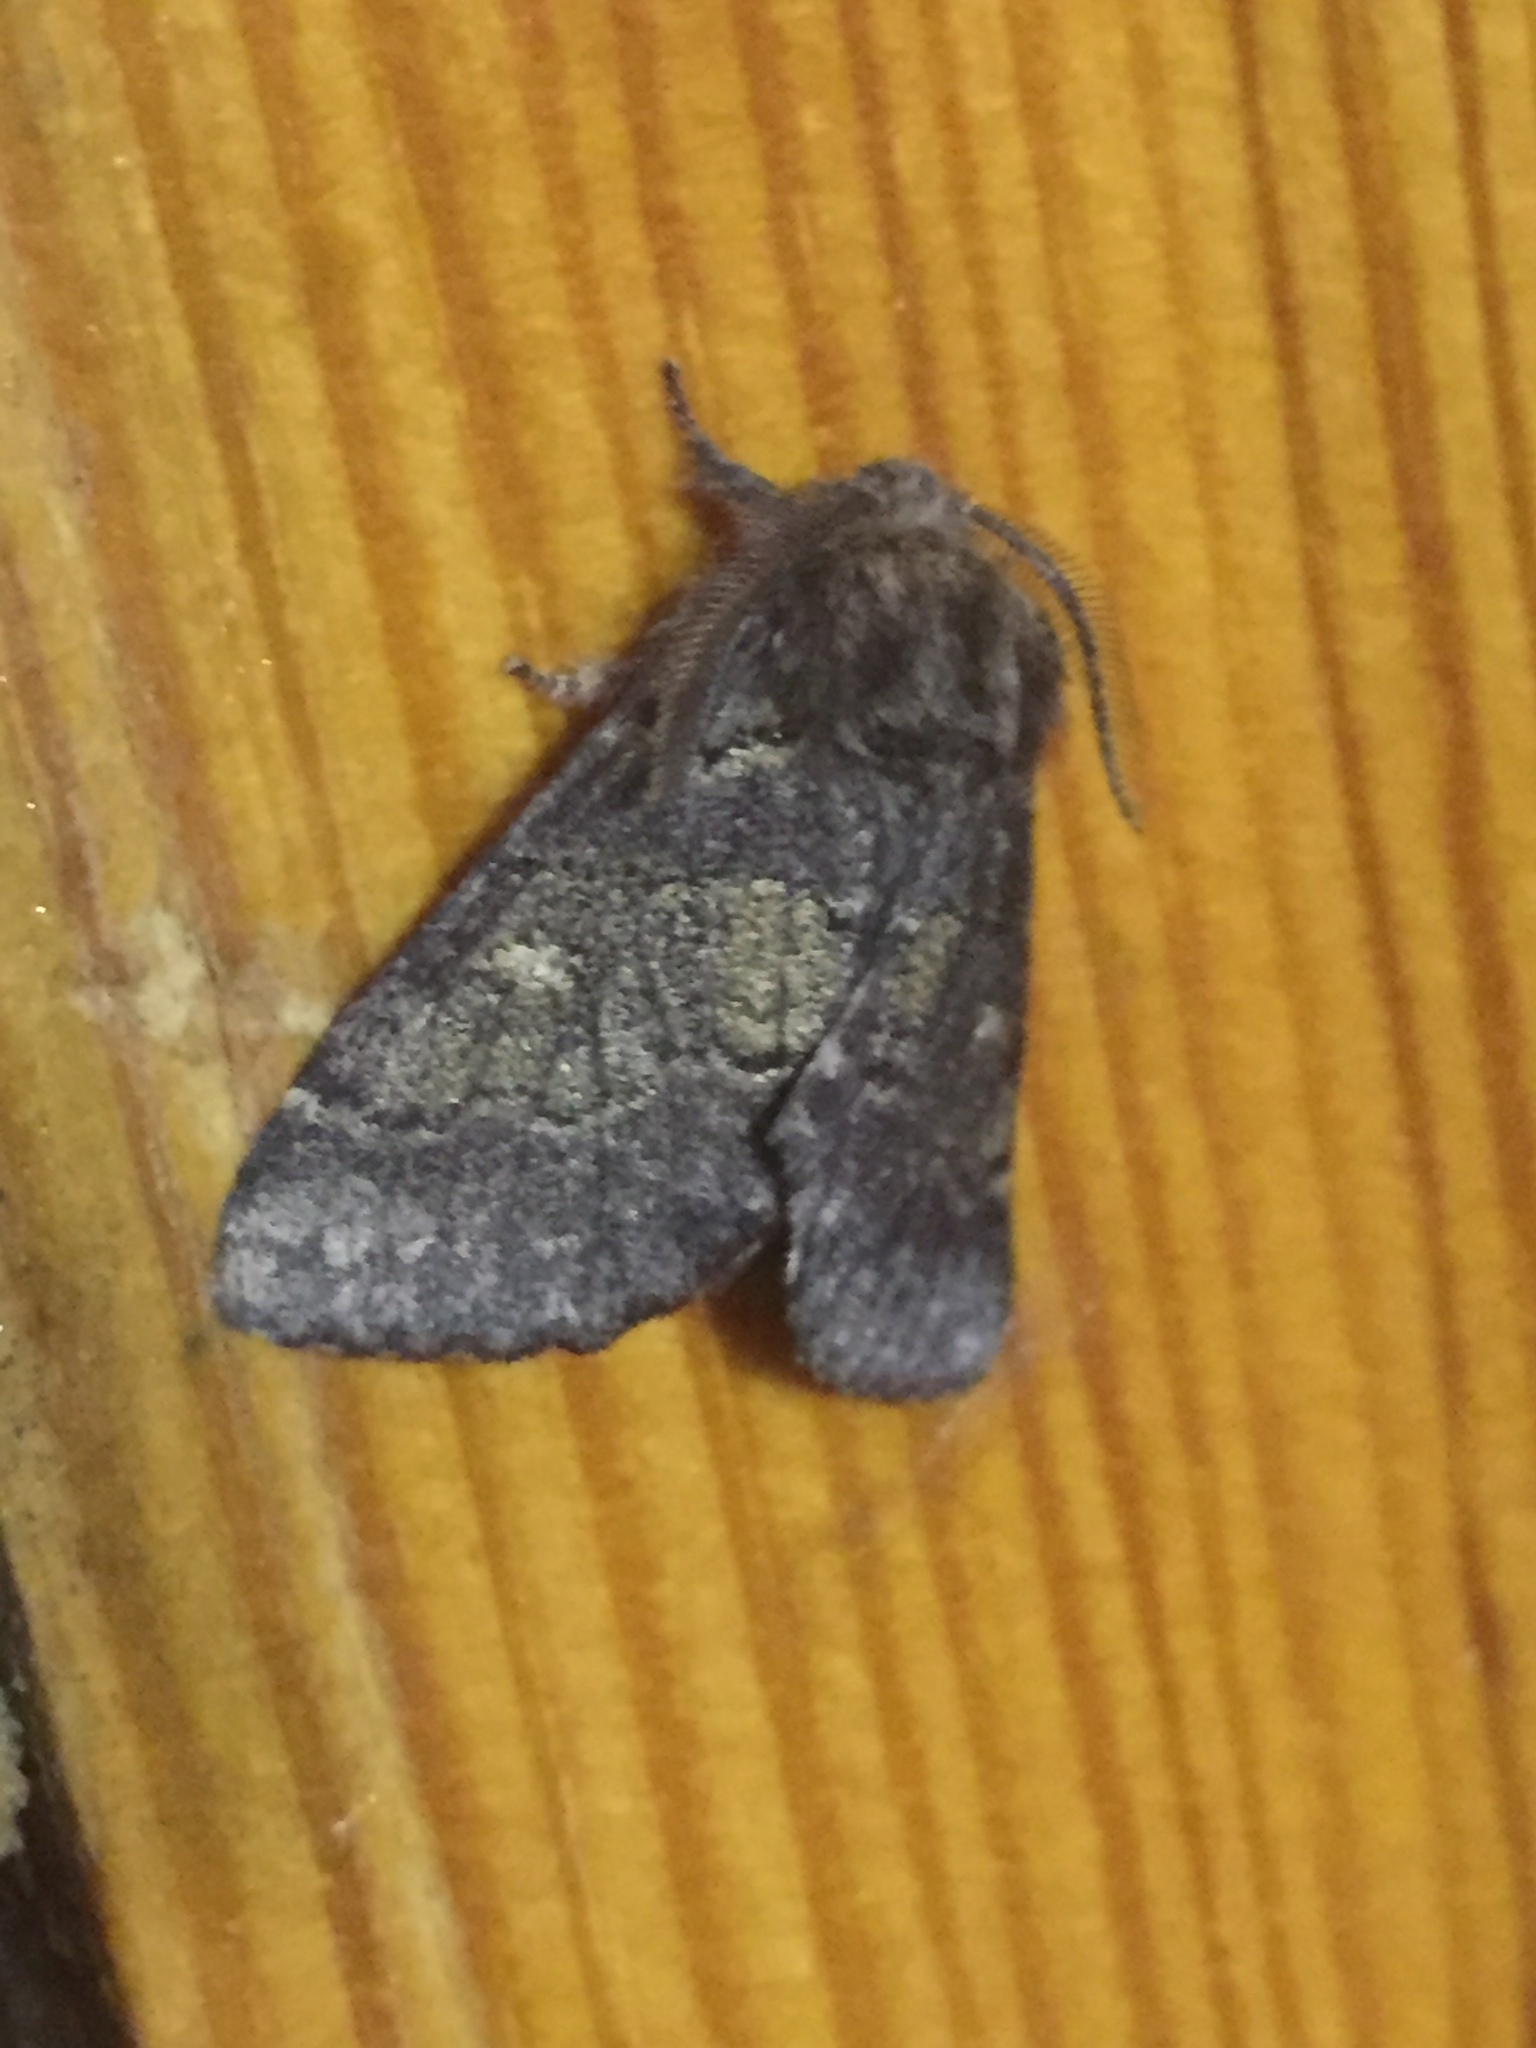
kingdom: Animalia
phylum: Arthropoda
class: Insecta
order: Lepidoptera
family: Notodontidae
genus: Gluphisia
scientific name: Gluphisia crenata
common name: Dusky marbled brown
